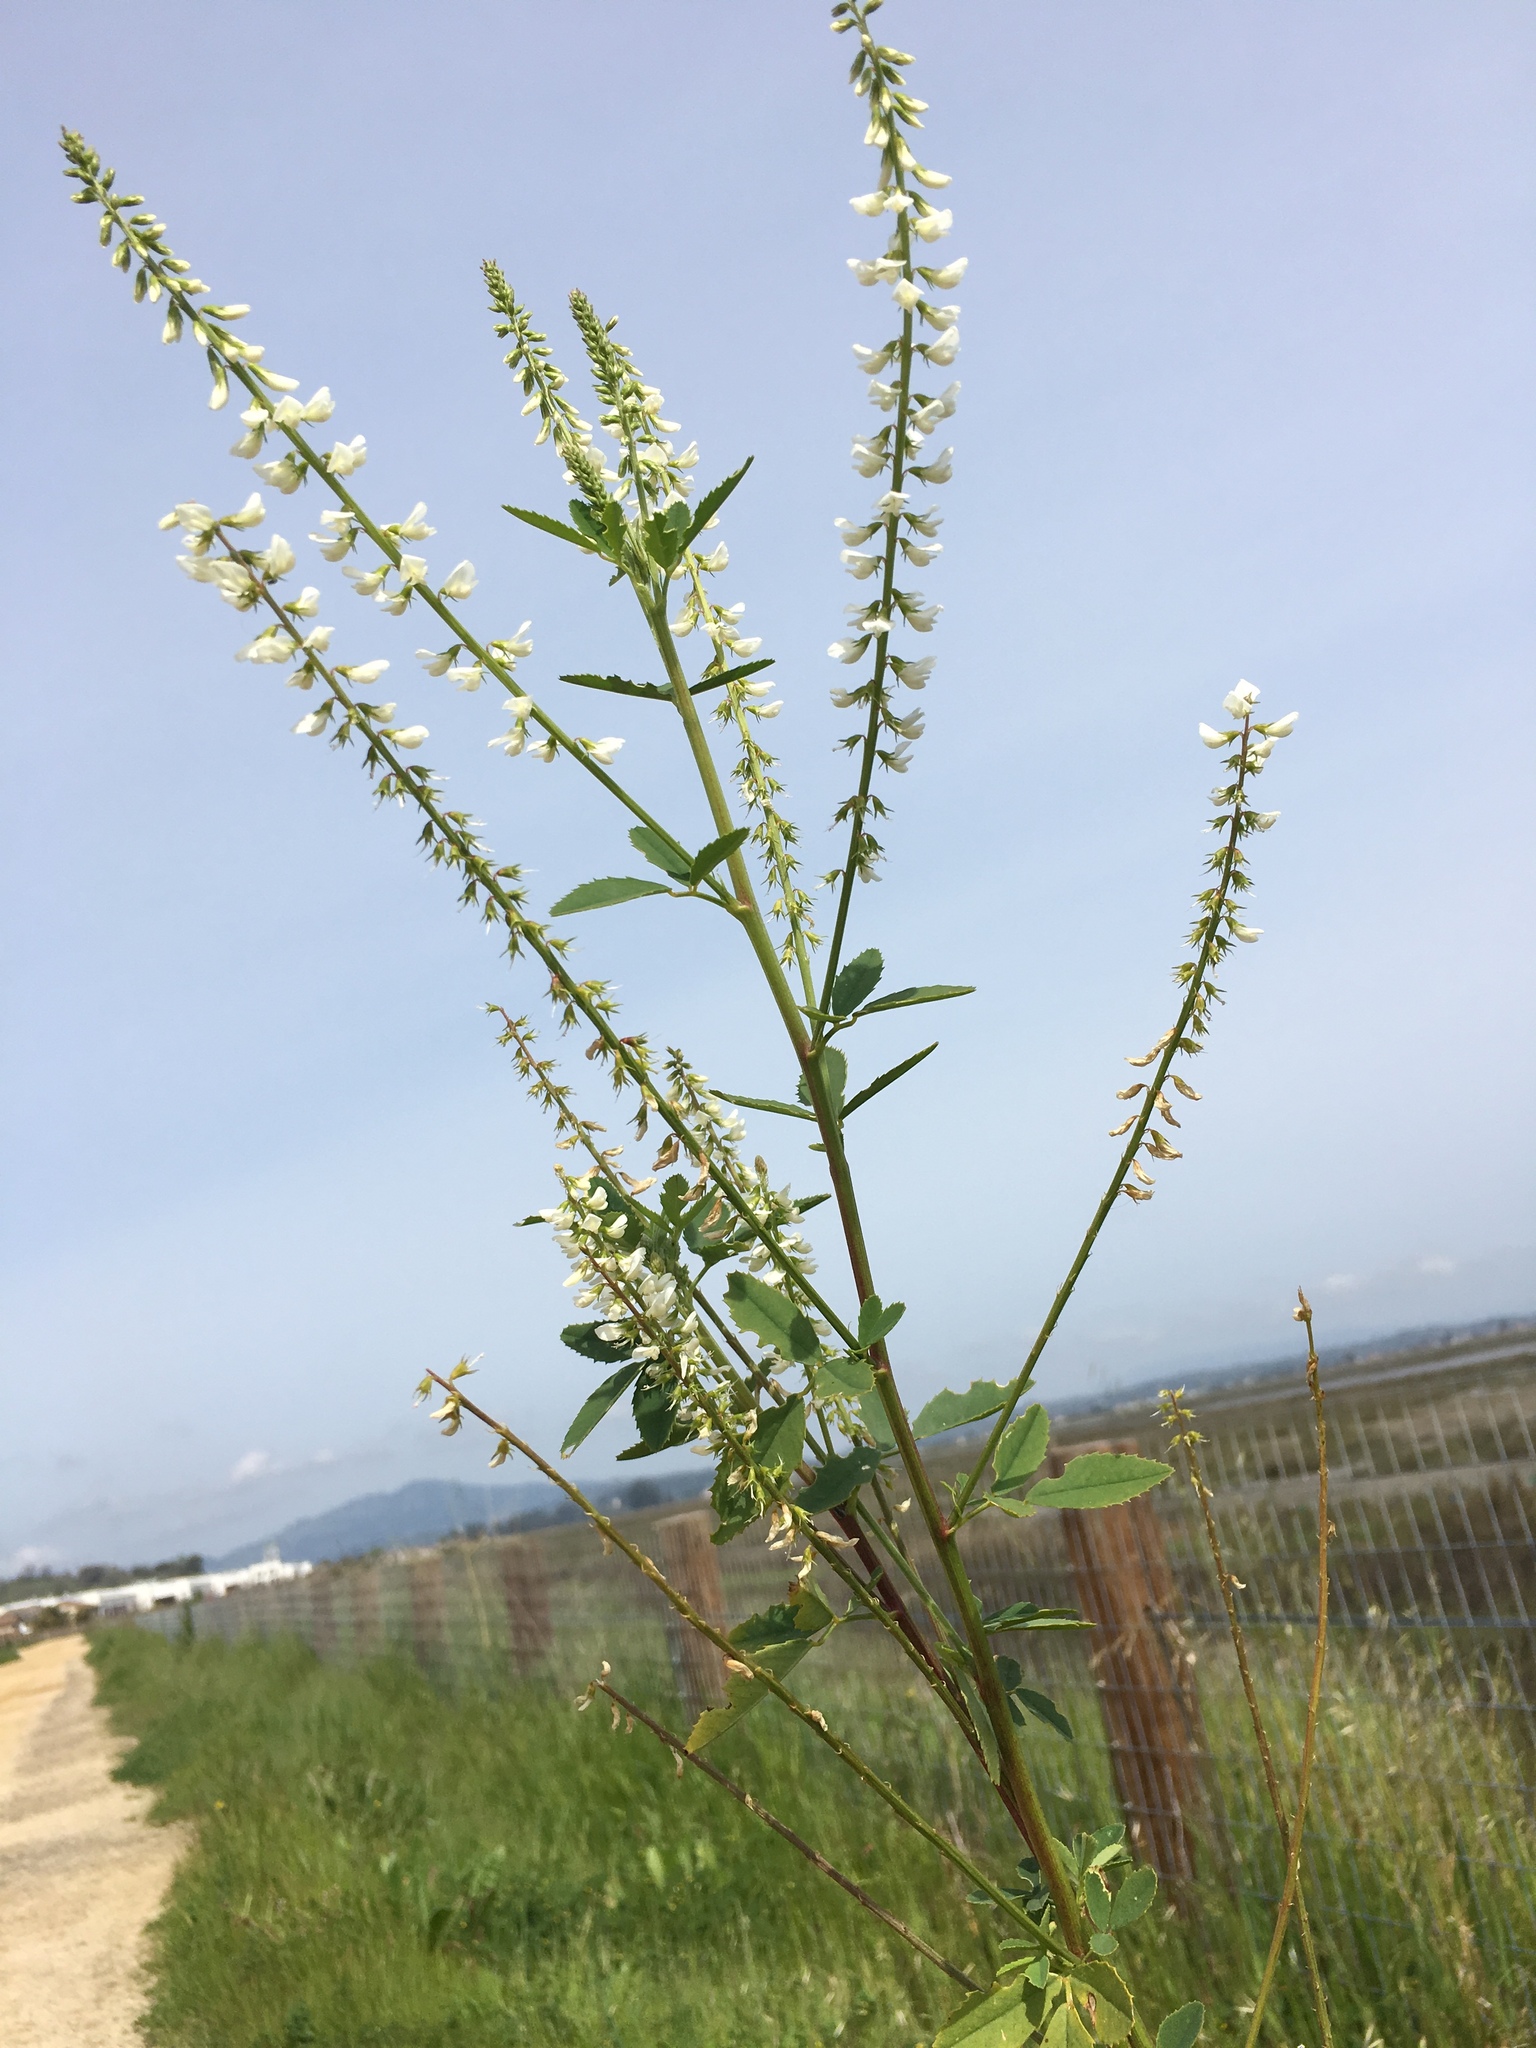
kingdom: Plantae
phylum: Tracheophyta
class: Magnoliopsida
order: Fabales
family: Fabaceae
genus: Melilotus
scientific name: Melilotus albus
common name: White melilot
